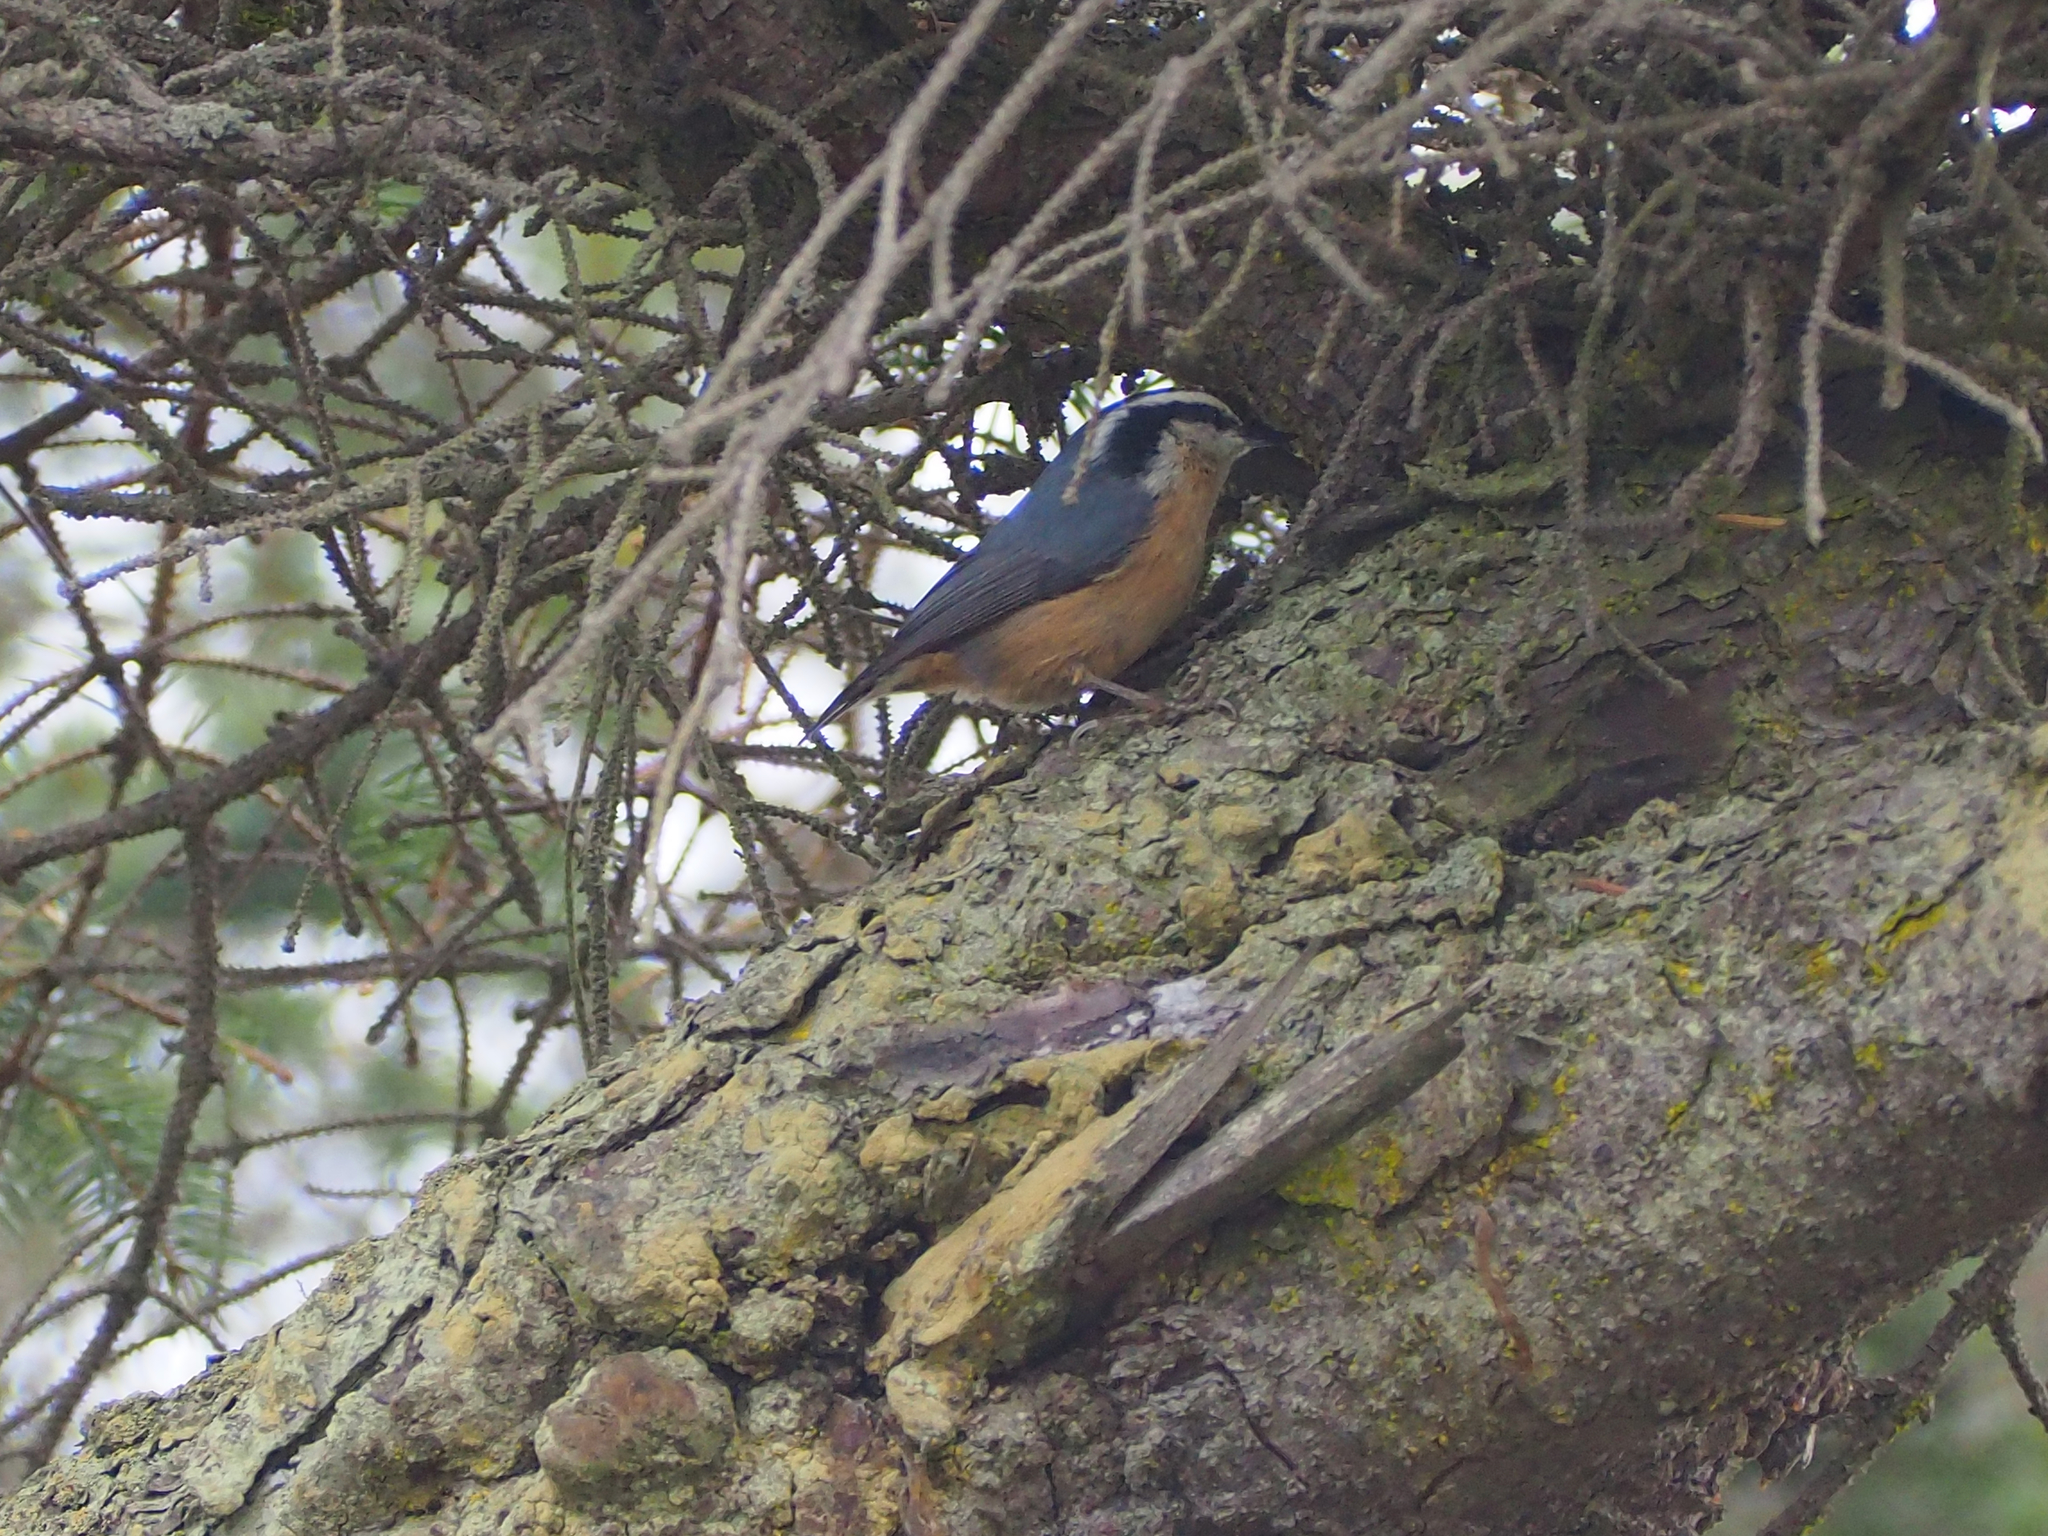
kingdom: Animalia
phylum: Chordata
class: Aves
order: Passeriformes
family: Sittidae
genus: Sitta
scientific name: Sitta canadensis
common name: Red-breasted nuthatch
